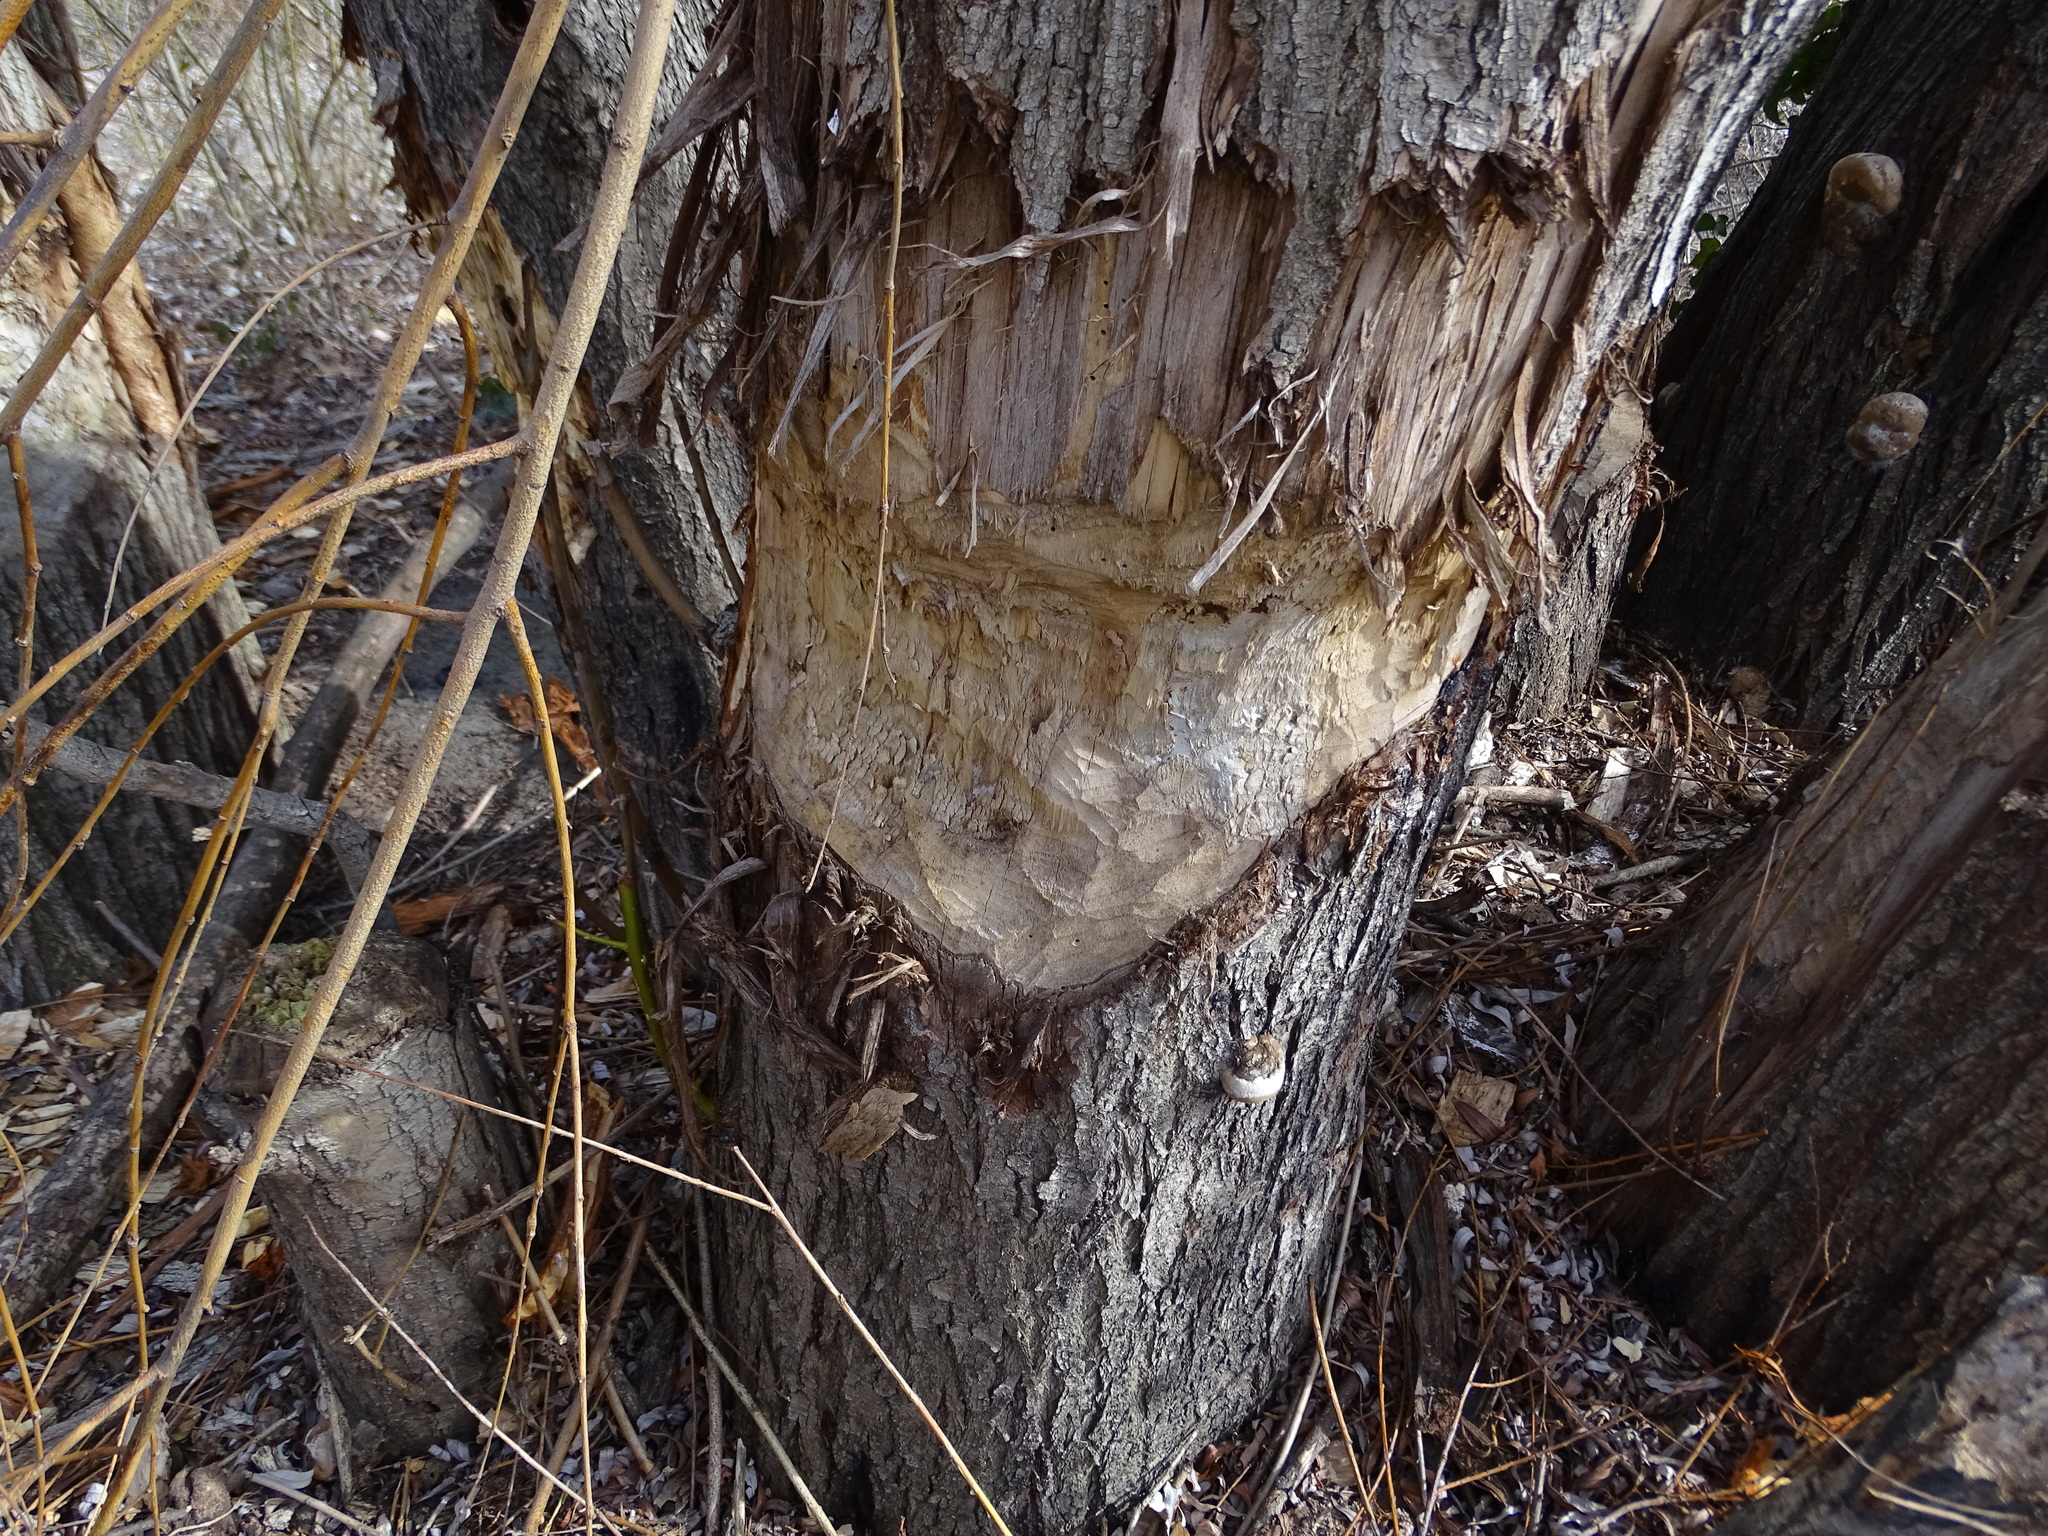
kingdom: Animalia
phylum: Chordata
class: Mammalia
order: Rodentia
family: Castoridae
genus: Castor
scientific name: Castor fiber
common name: Eurasian beaver
